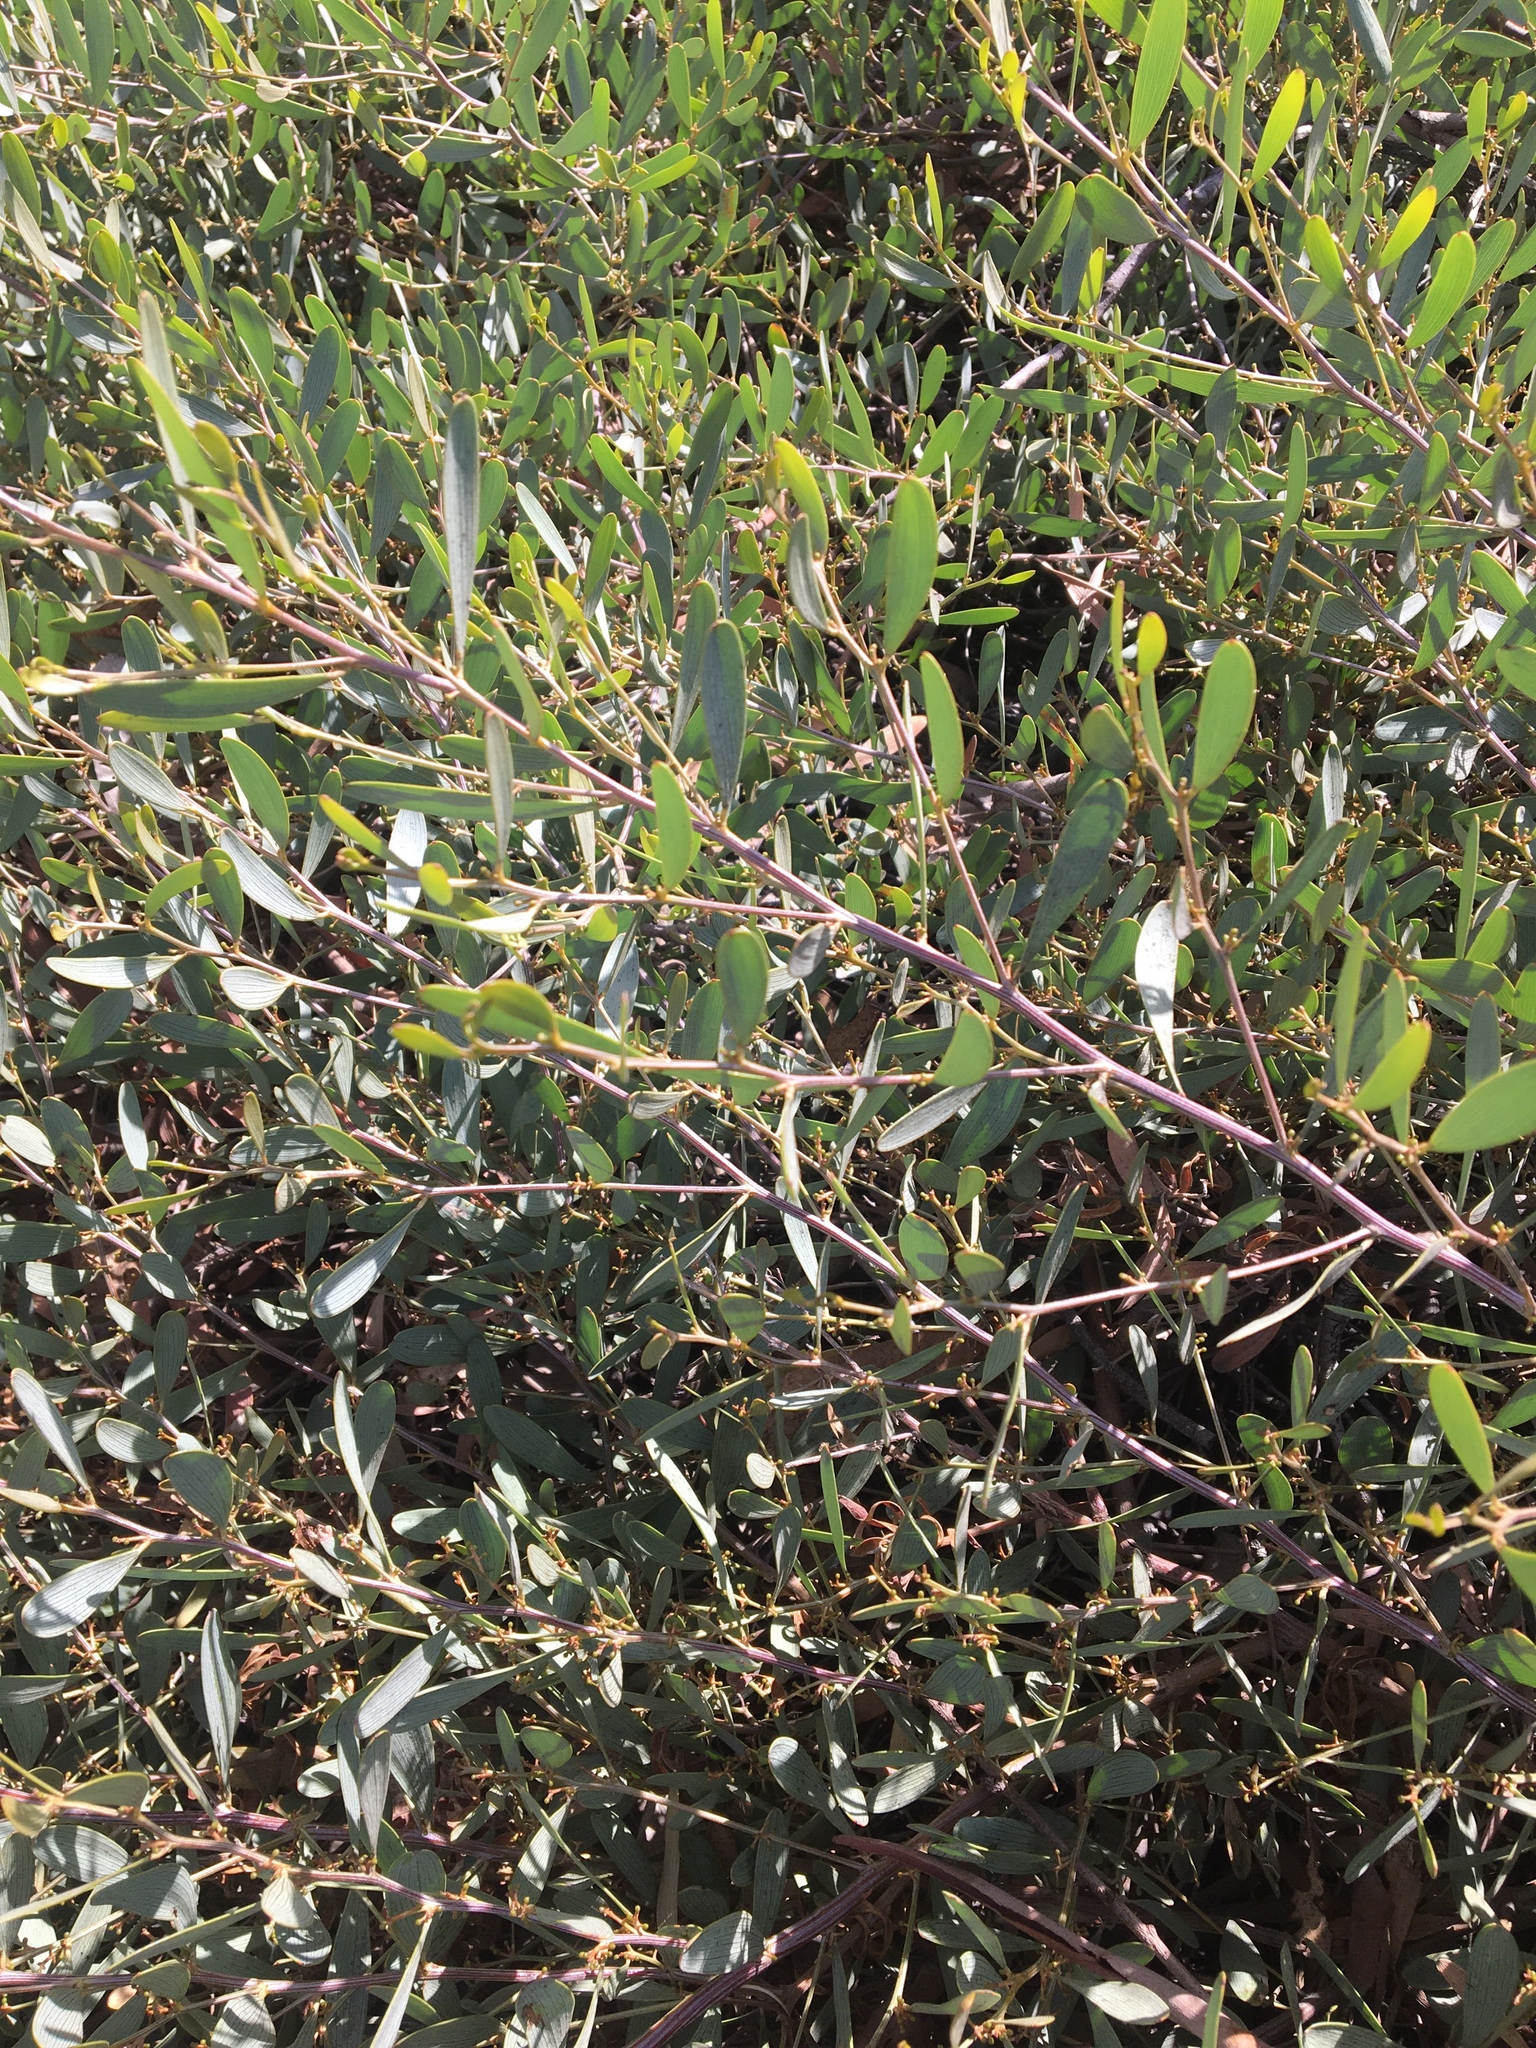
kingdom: Plantae
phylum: Tracheophyta
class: Magnoliopsida
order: Fabales
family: Fabaceae
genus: Acacia
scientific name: Acacia redolens
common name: Bank catclaw
